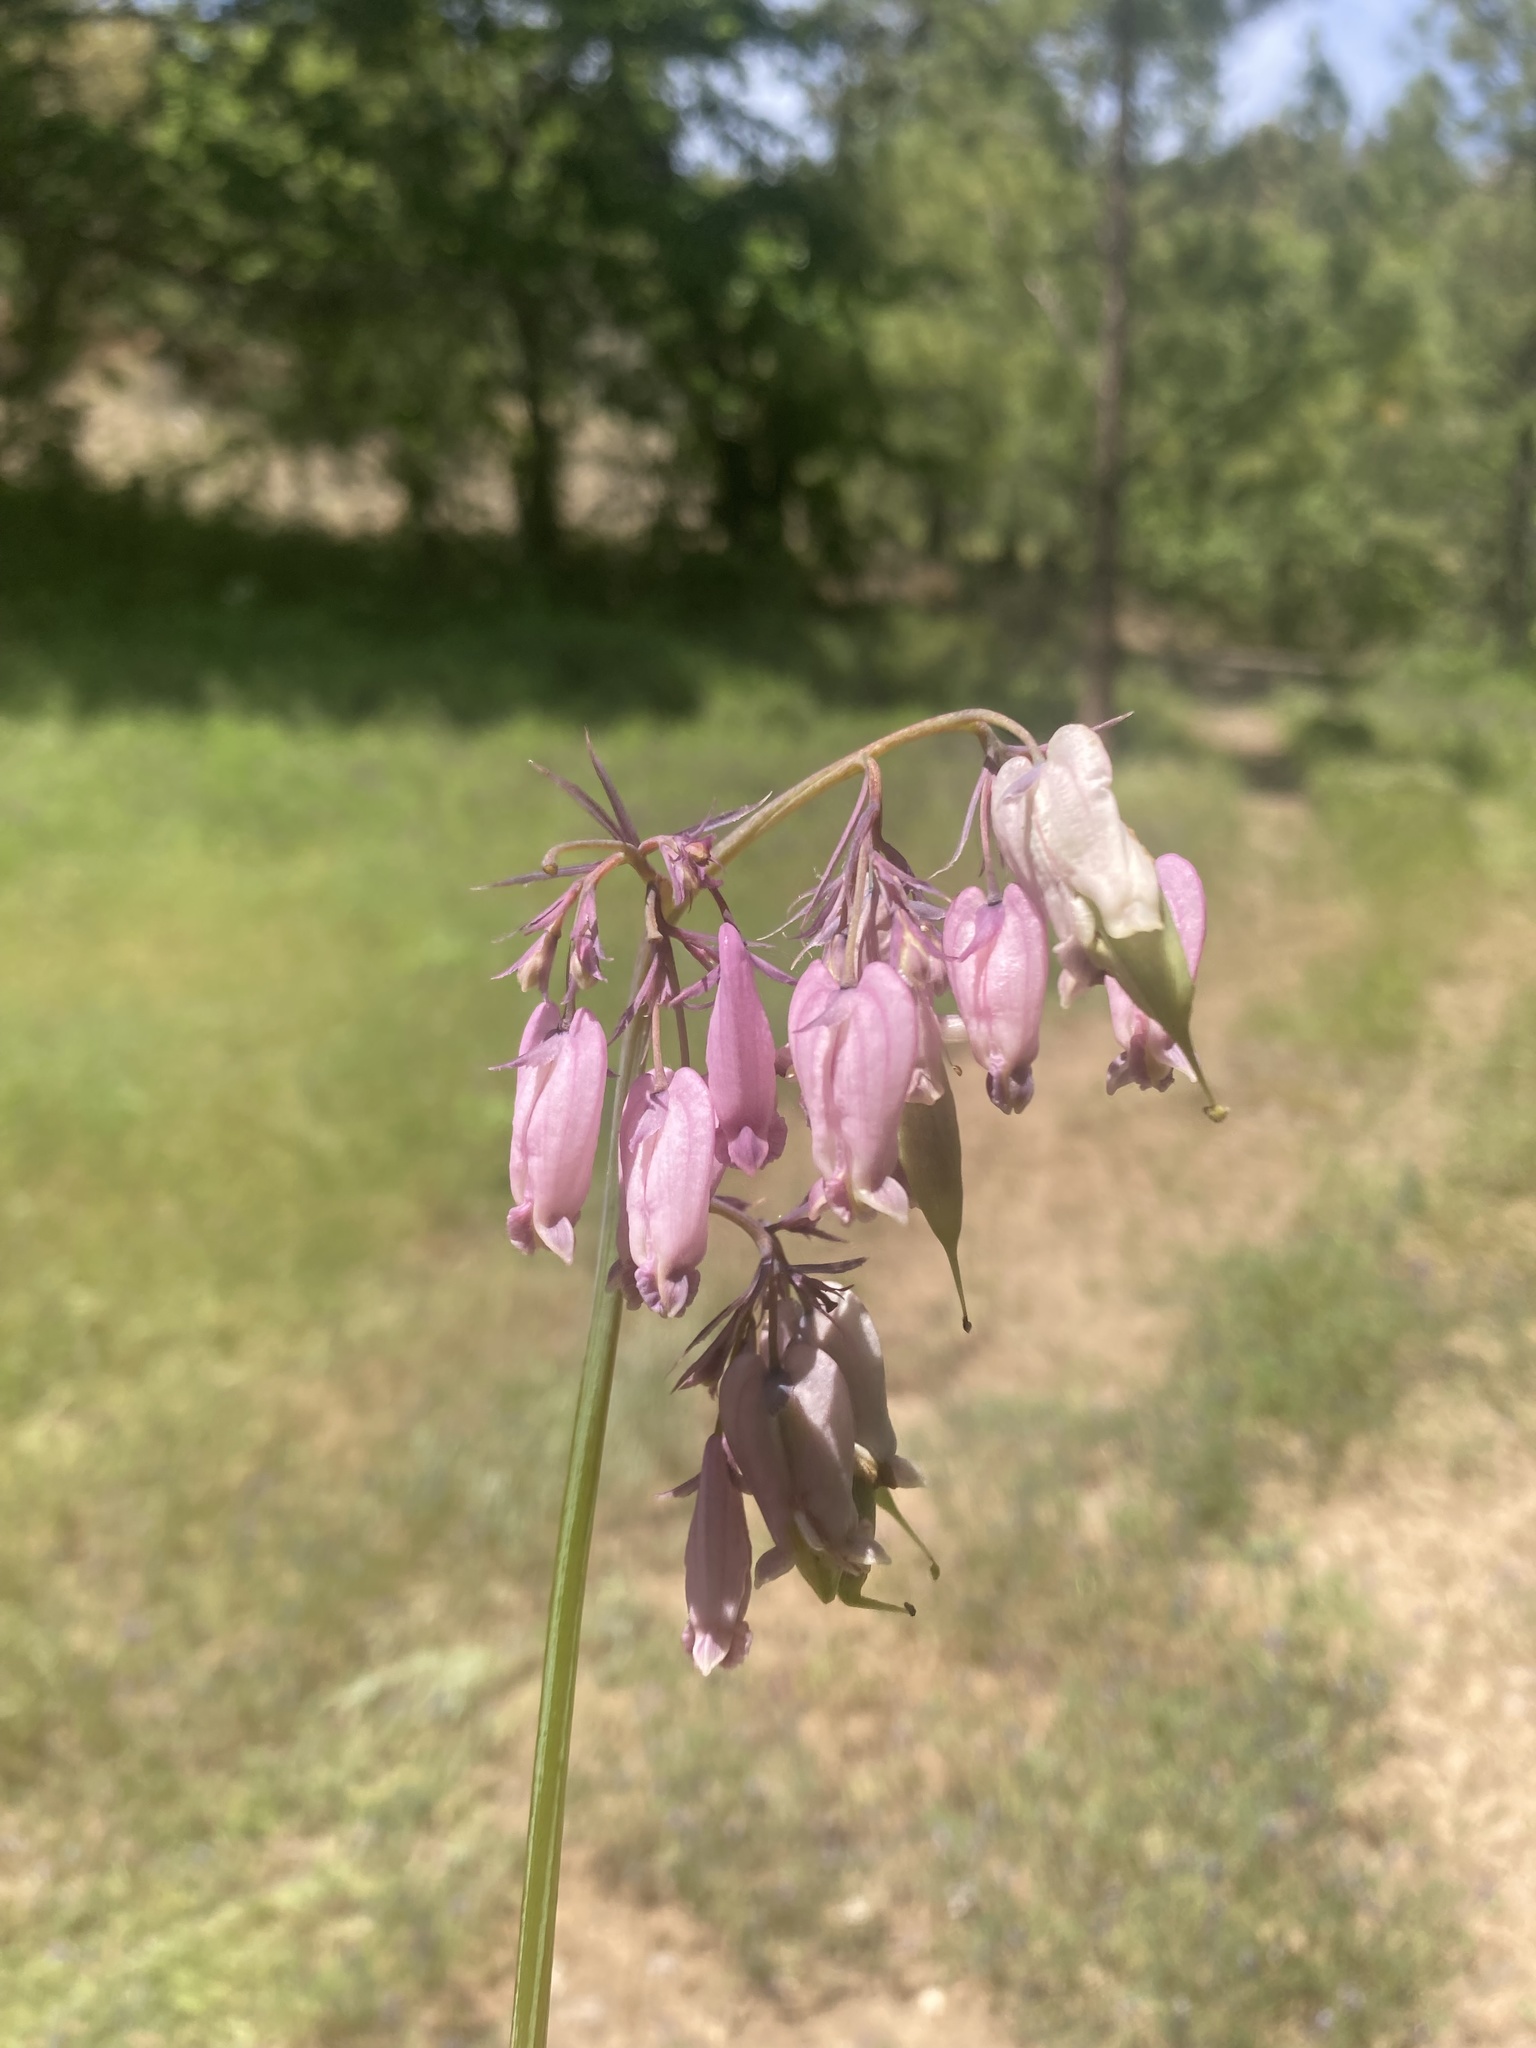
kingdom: Plantae
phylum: Tracheophyta
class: Magnoliopsida
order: Ranunculales
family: Papaveraceae
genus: Dicentra
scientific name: Dicentra formosa
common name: Bleeding-heart
